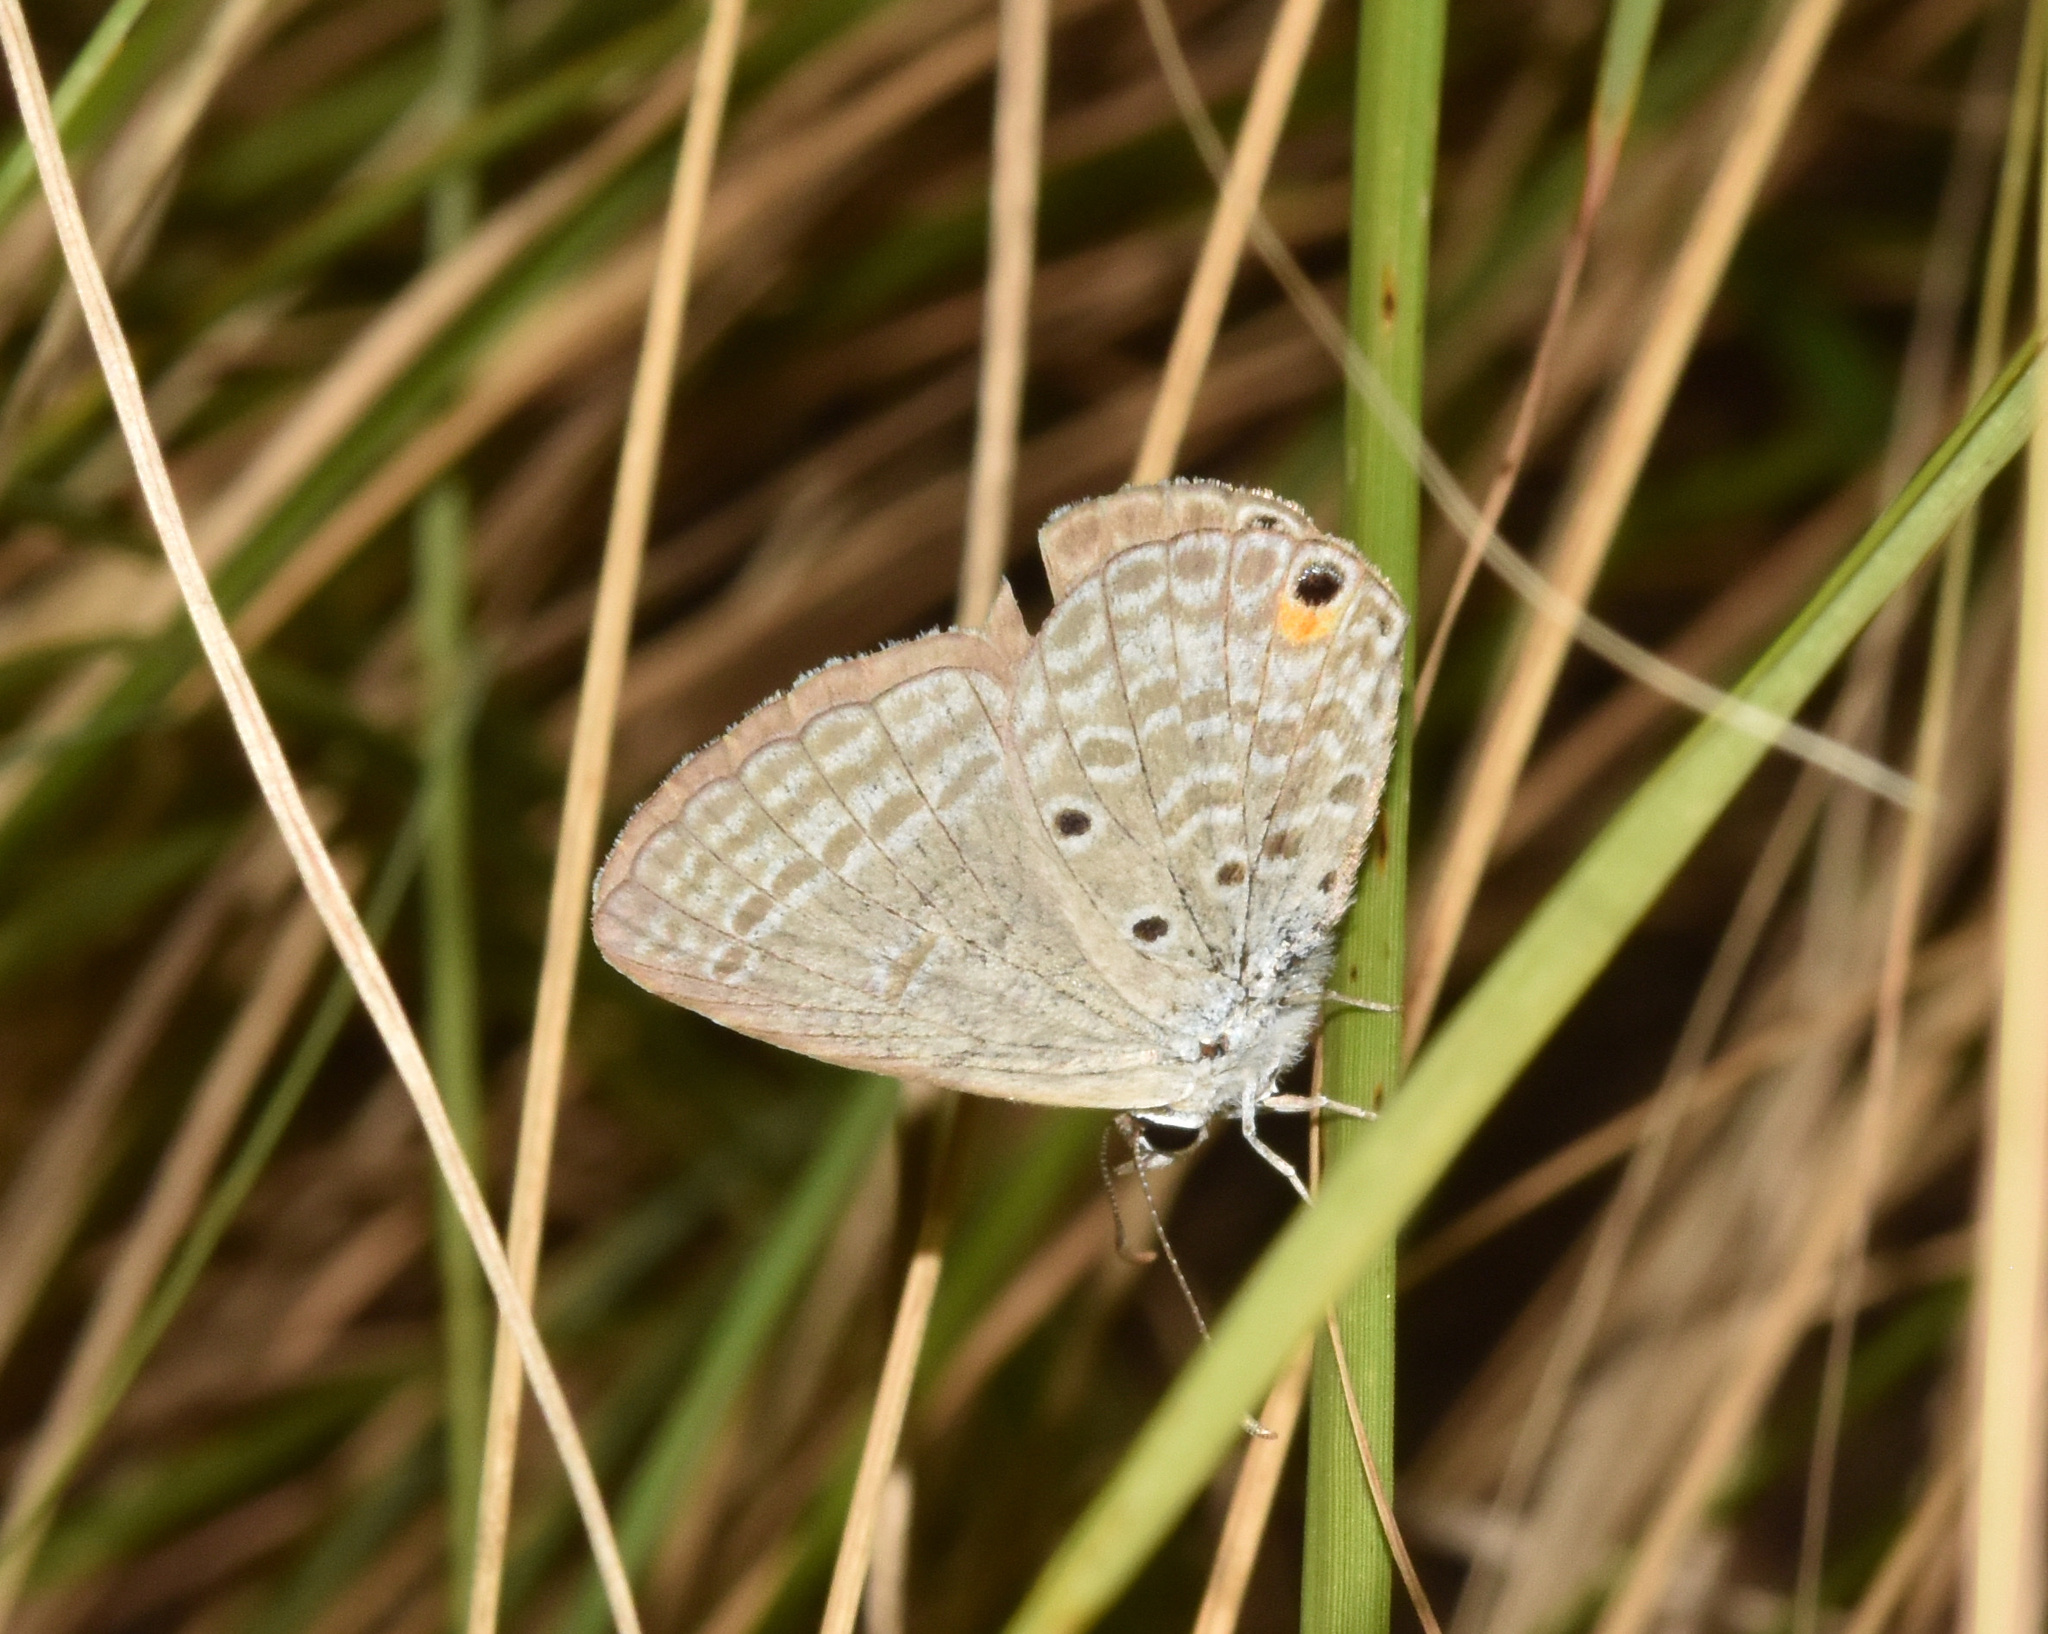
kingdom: Animalia
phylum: Arthropoda
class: Insecta
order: Lepidoptera
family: Lycaenidae
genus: Euchrysops
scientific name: Euchrysops malathana
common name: Common smoky blue
